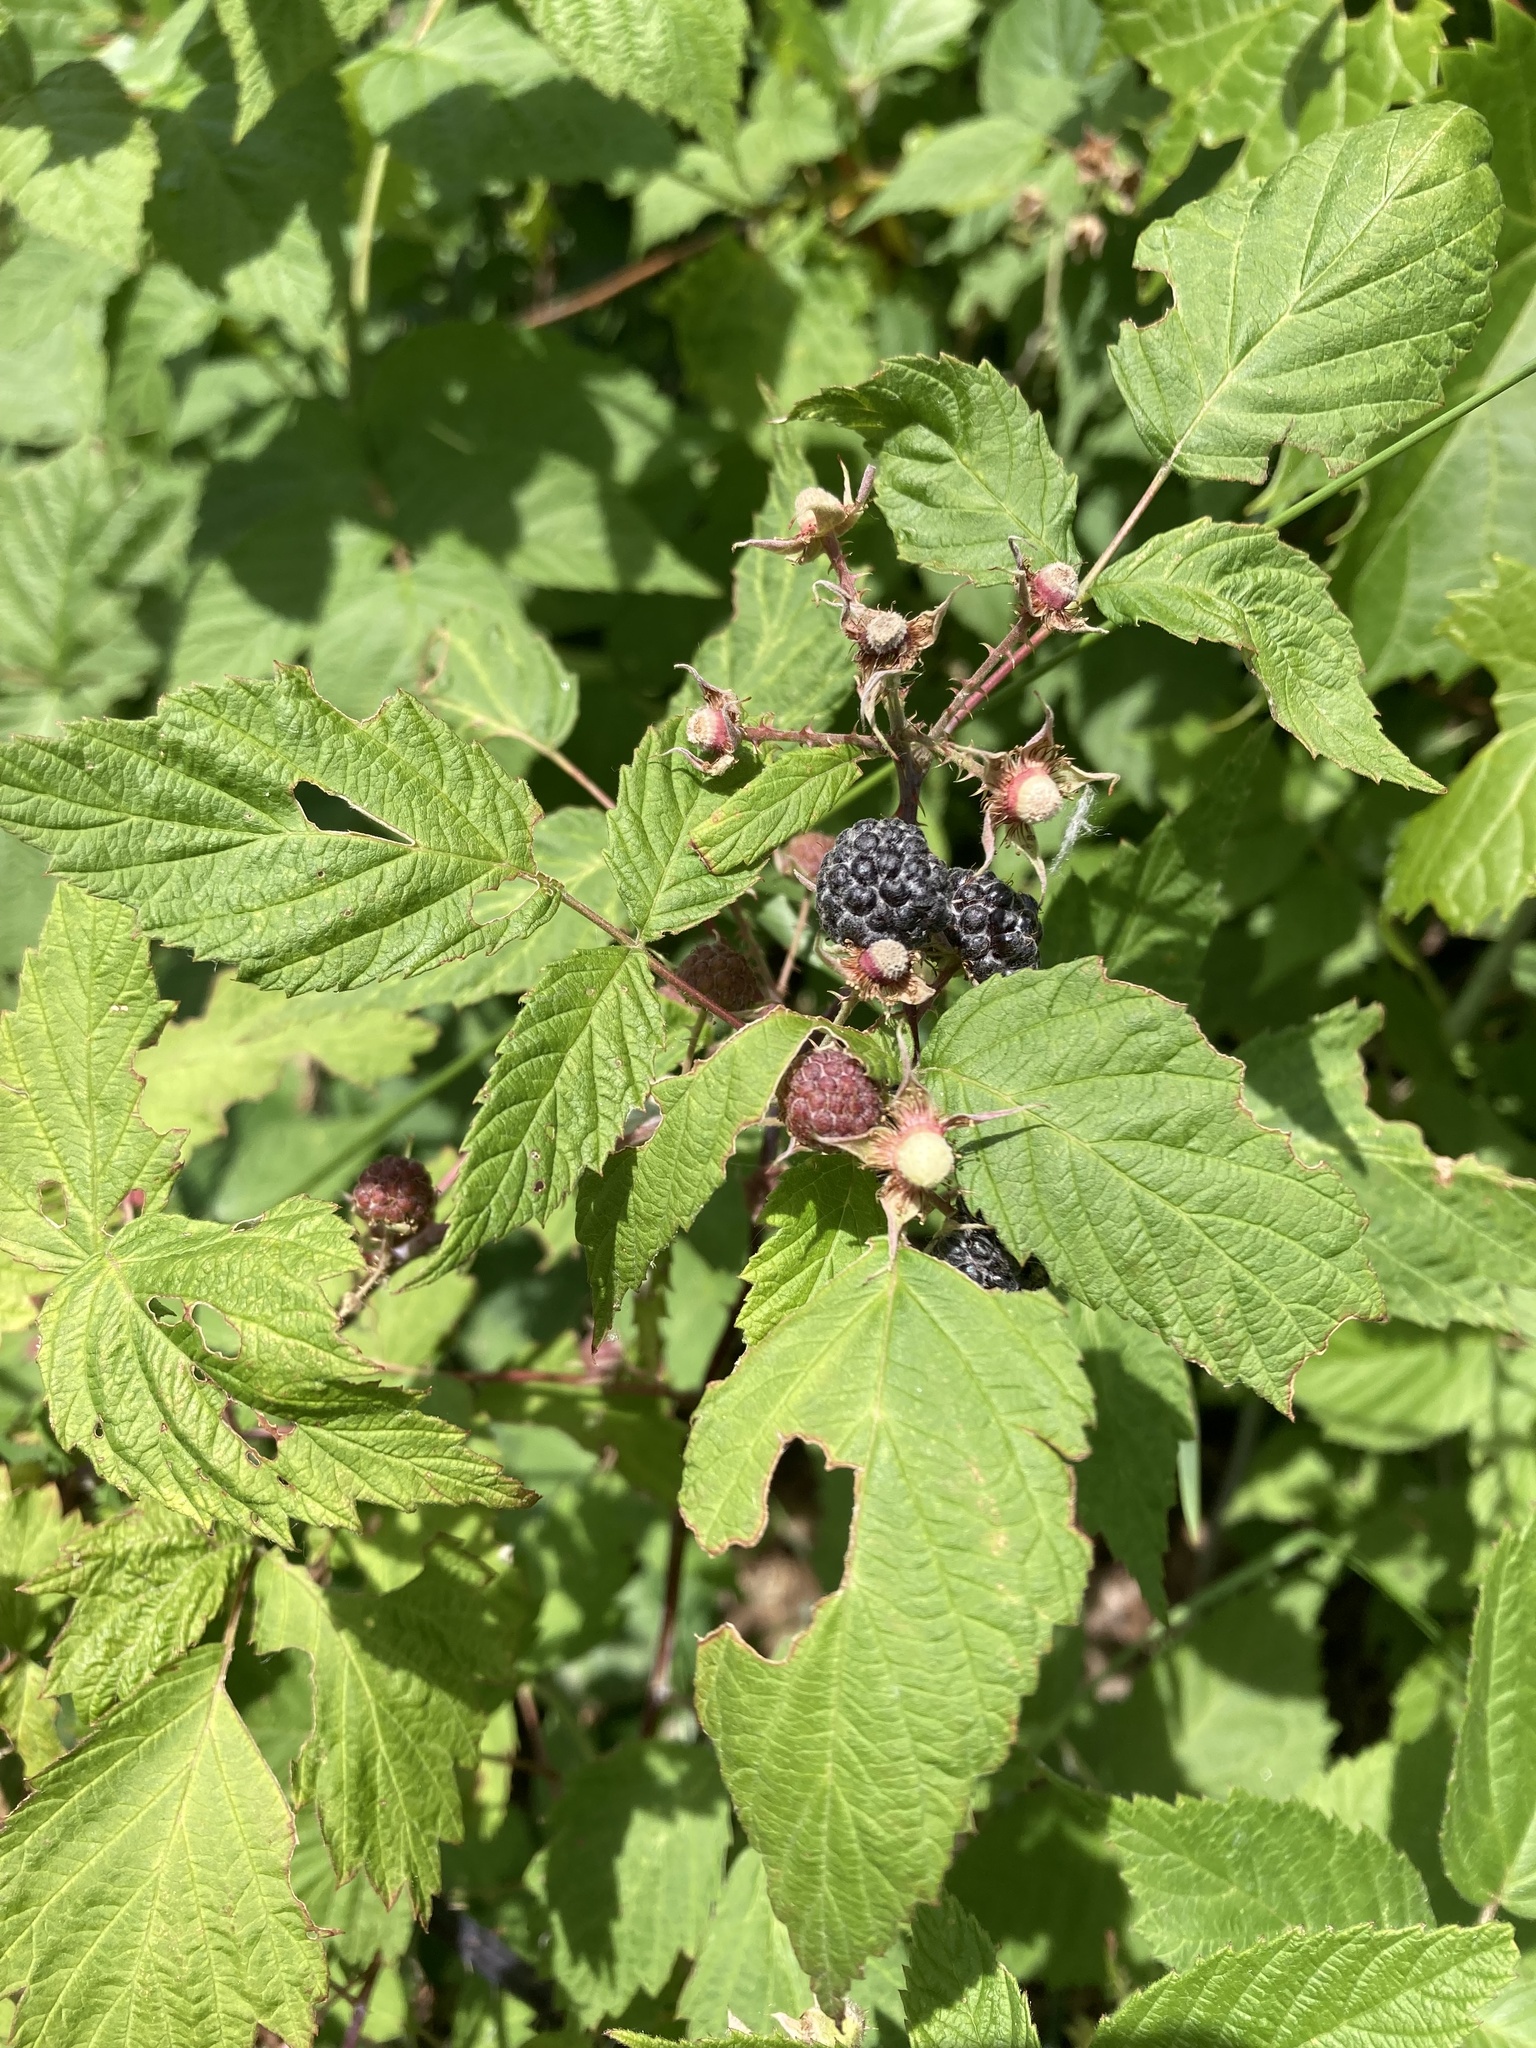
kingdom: Plantae
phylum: Tracheophyta
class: Magnoliopsida
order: Rosales
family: Rosaceae
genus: Rubus
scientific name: Rubus occidentalis
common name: Black raspberry
